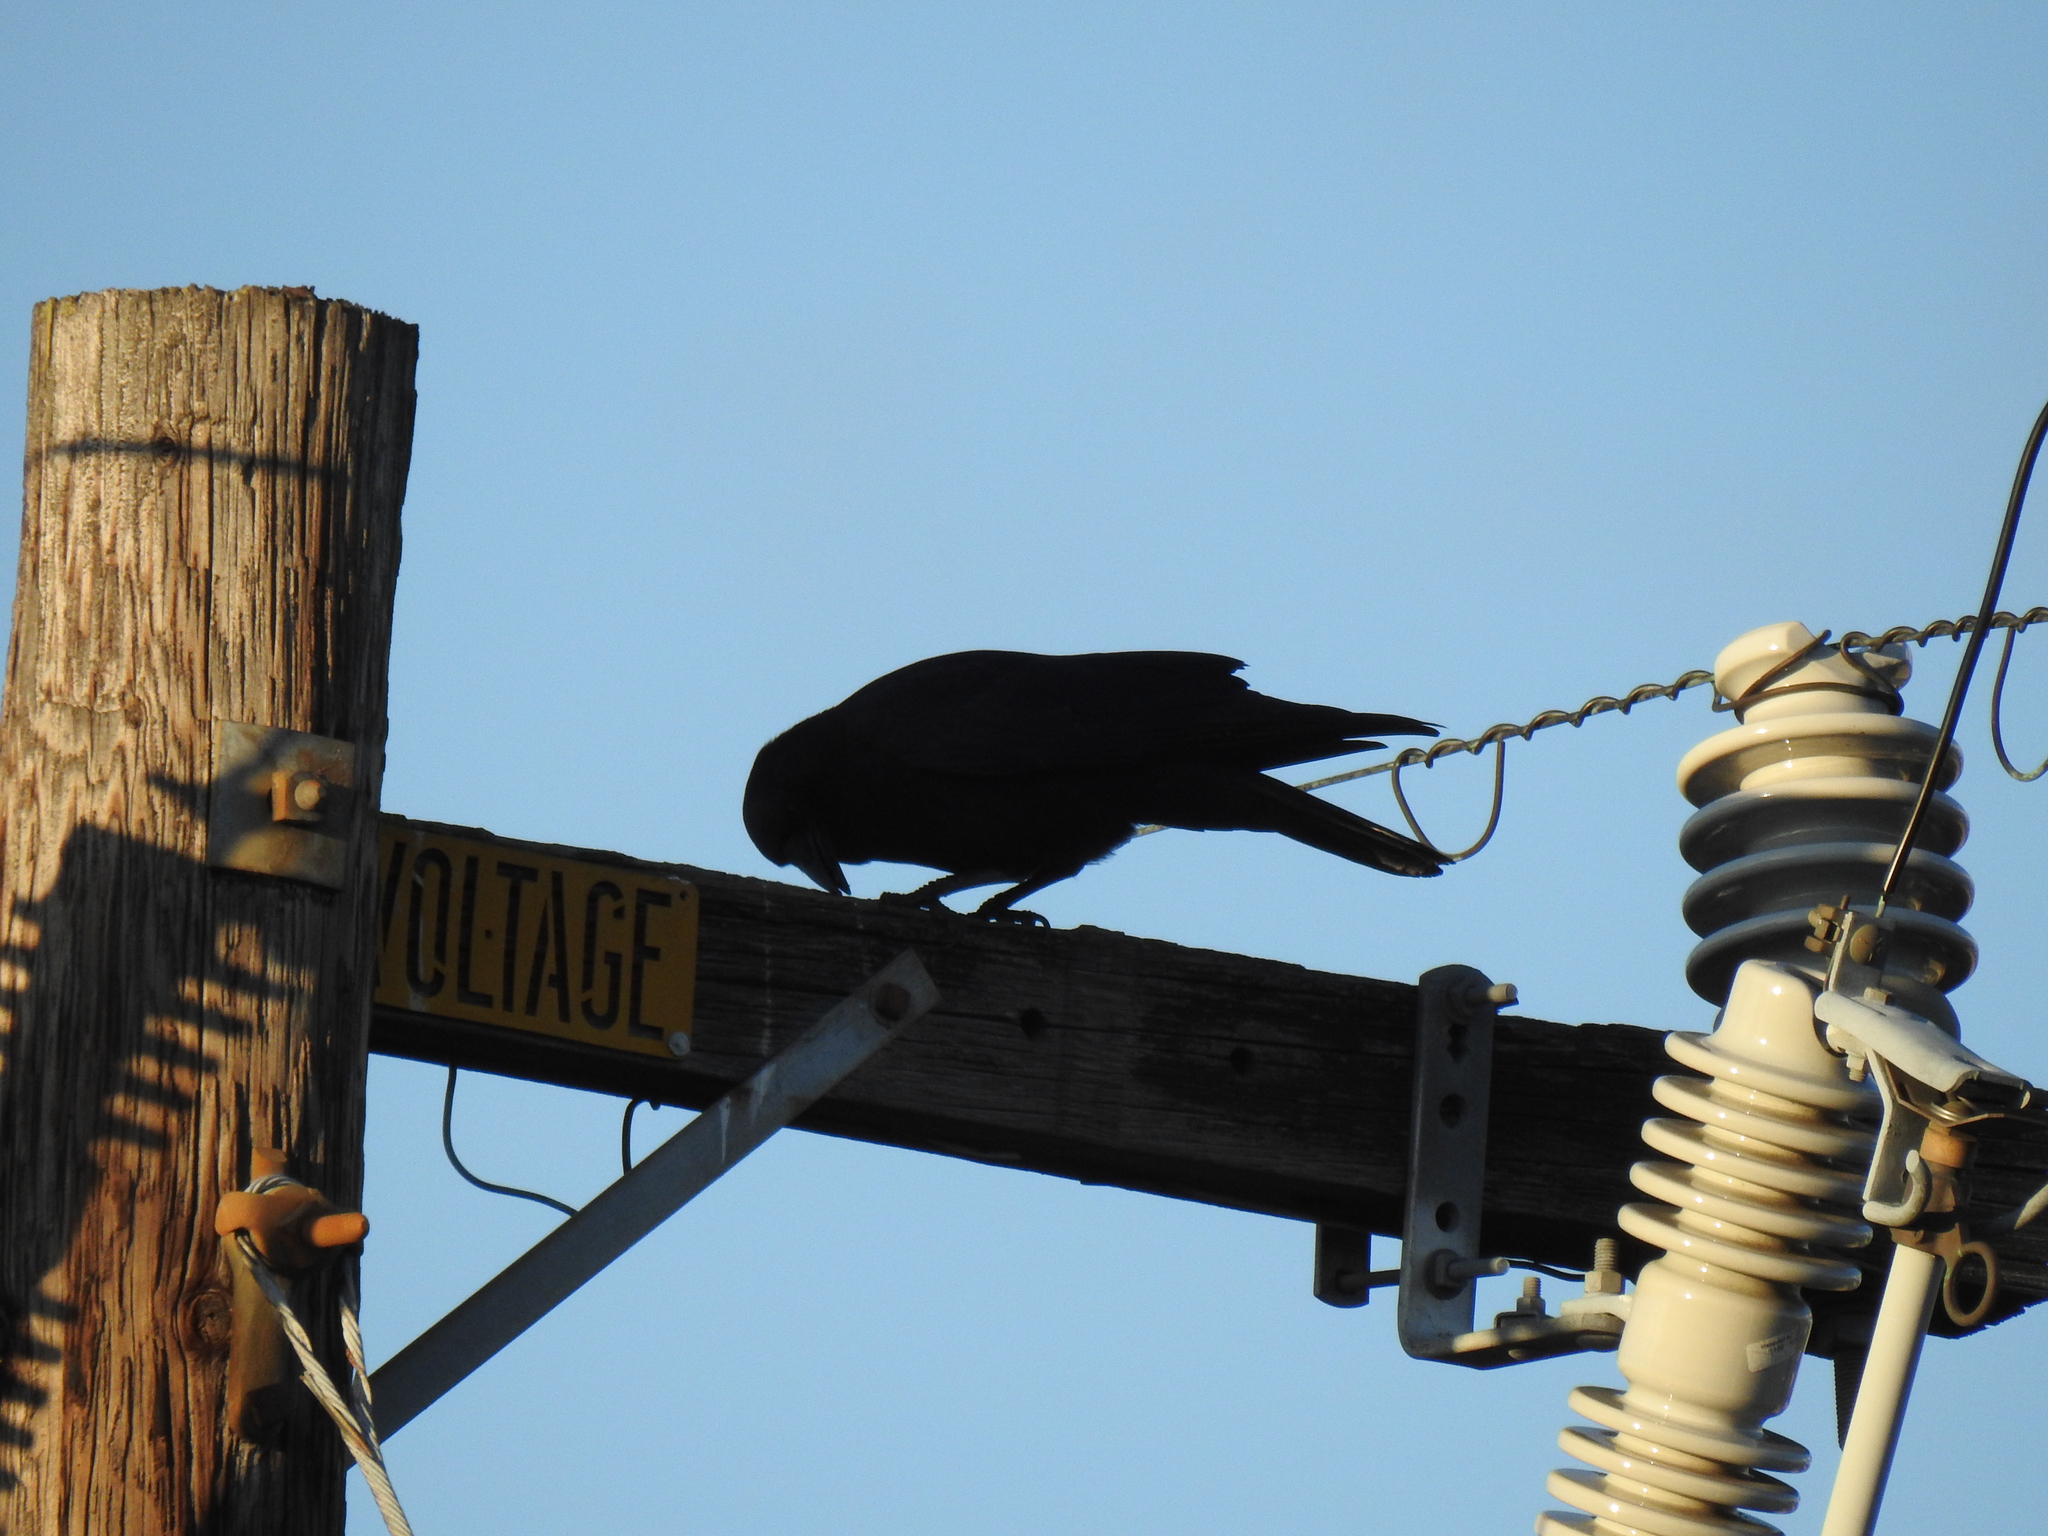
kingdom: Animalia
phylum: Chordata
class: Aves
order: Passeriformes
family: Corvidae
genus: Corvus
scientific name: Corvus brachyrhynchos
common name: American crow
